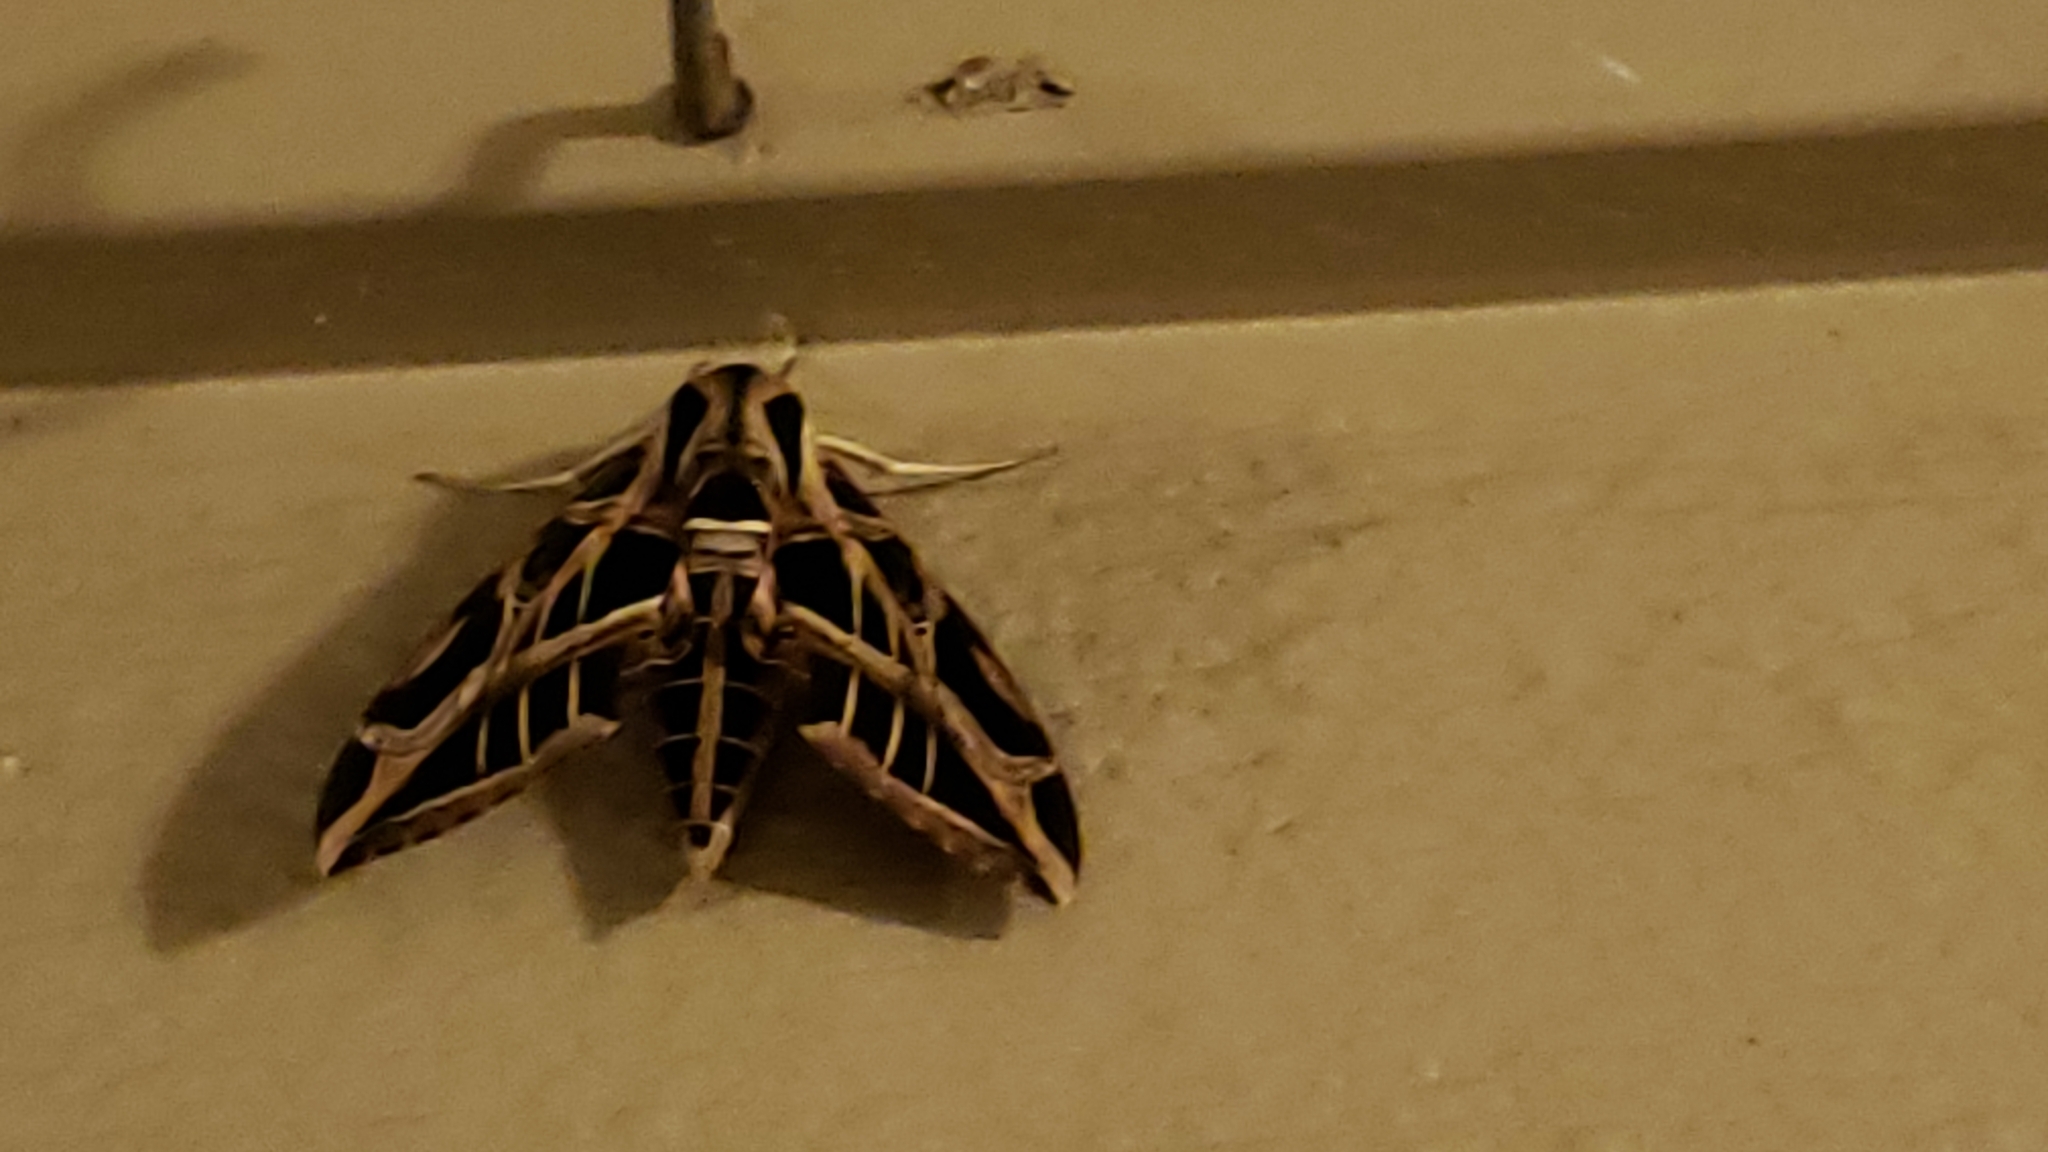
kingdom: Animalia
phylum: Arthropoda
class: Insecta
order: Lepidoptera
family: Sphingidae
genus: Eumorpha
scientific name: Eumorpha vitis
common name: Vine sphinx
